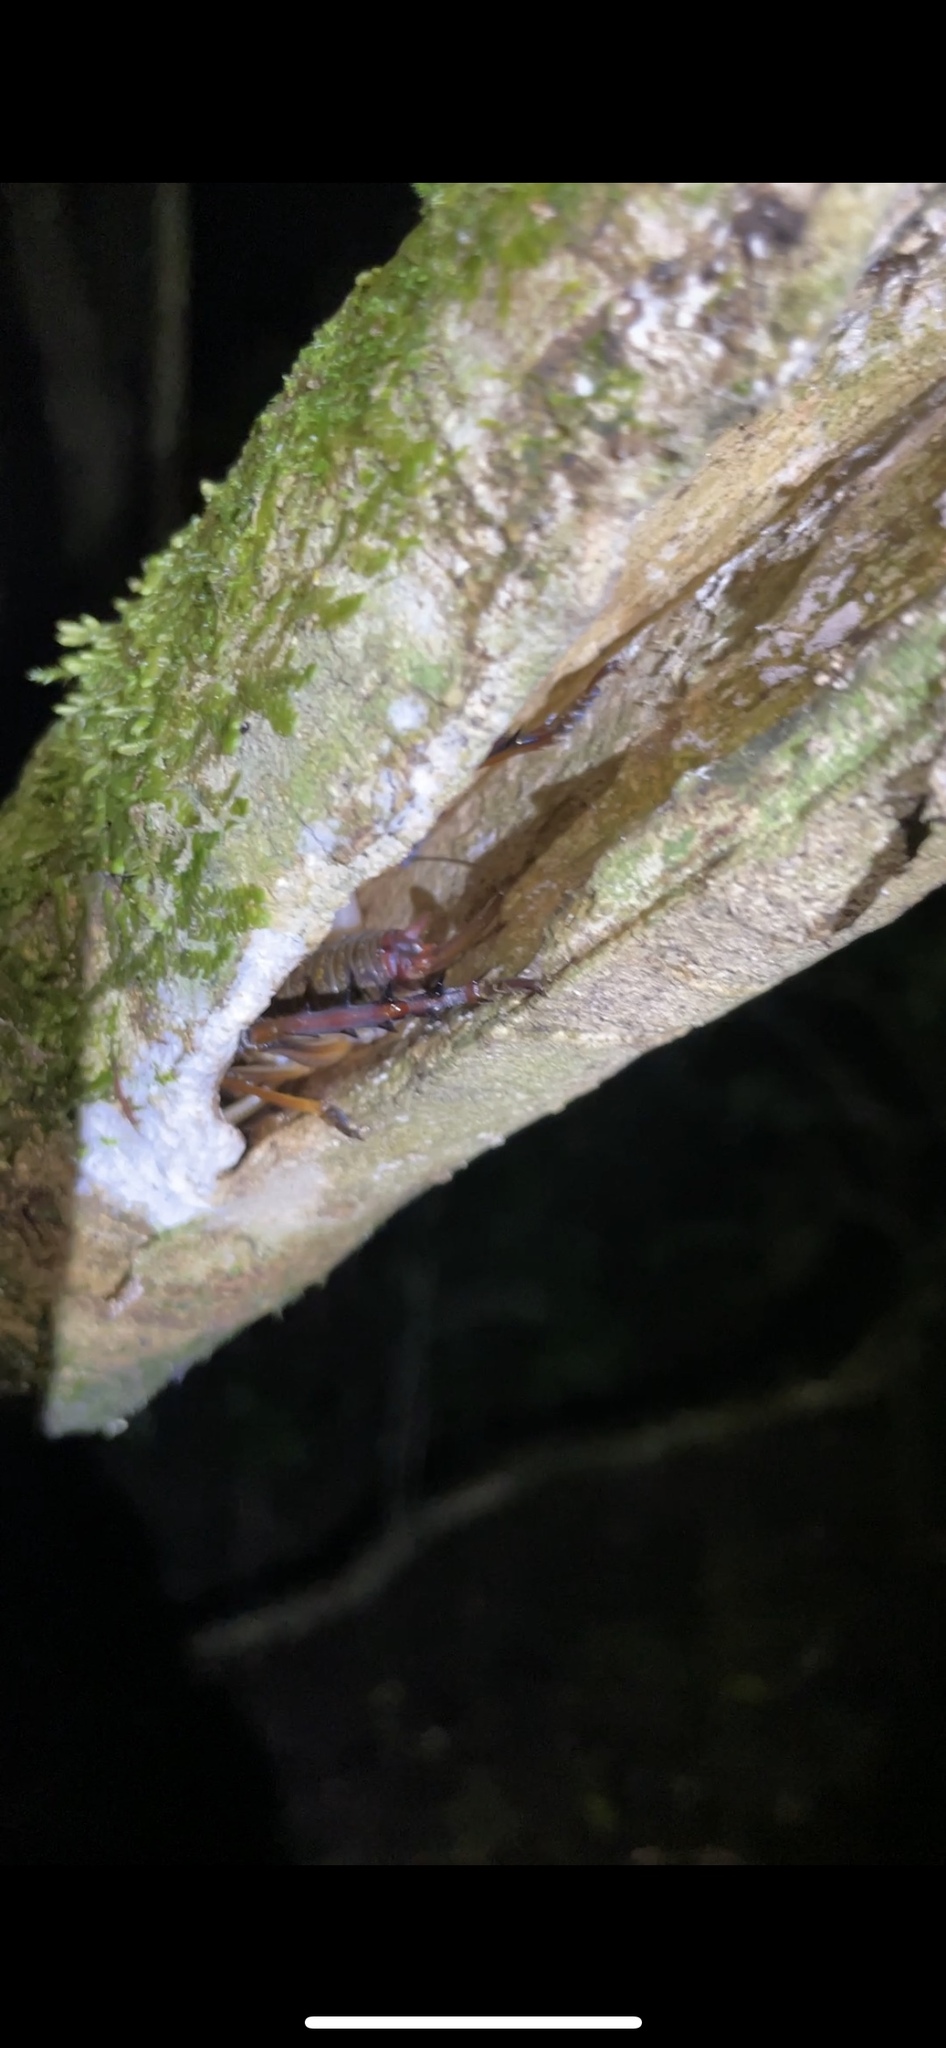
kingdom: Animalia
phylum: Arthropoda
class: Insecta
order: Orthoptera
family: Anostostomatidae
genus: Hemideina
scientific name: Hemideina thoracica
